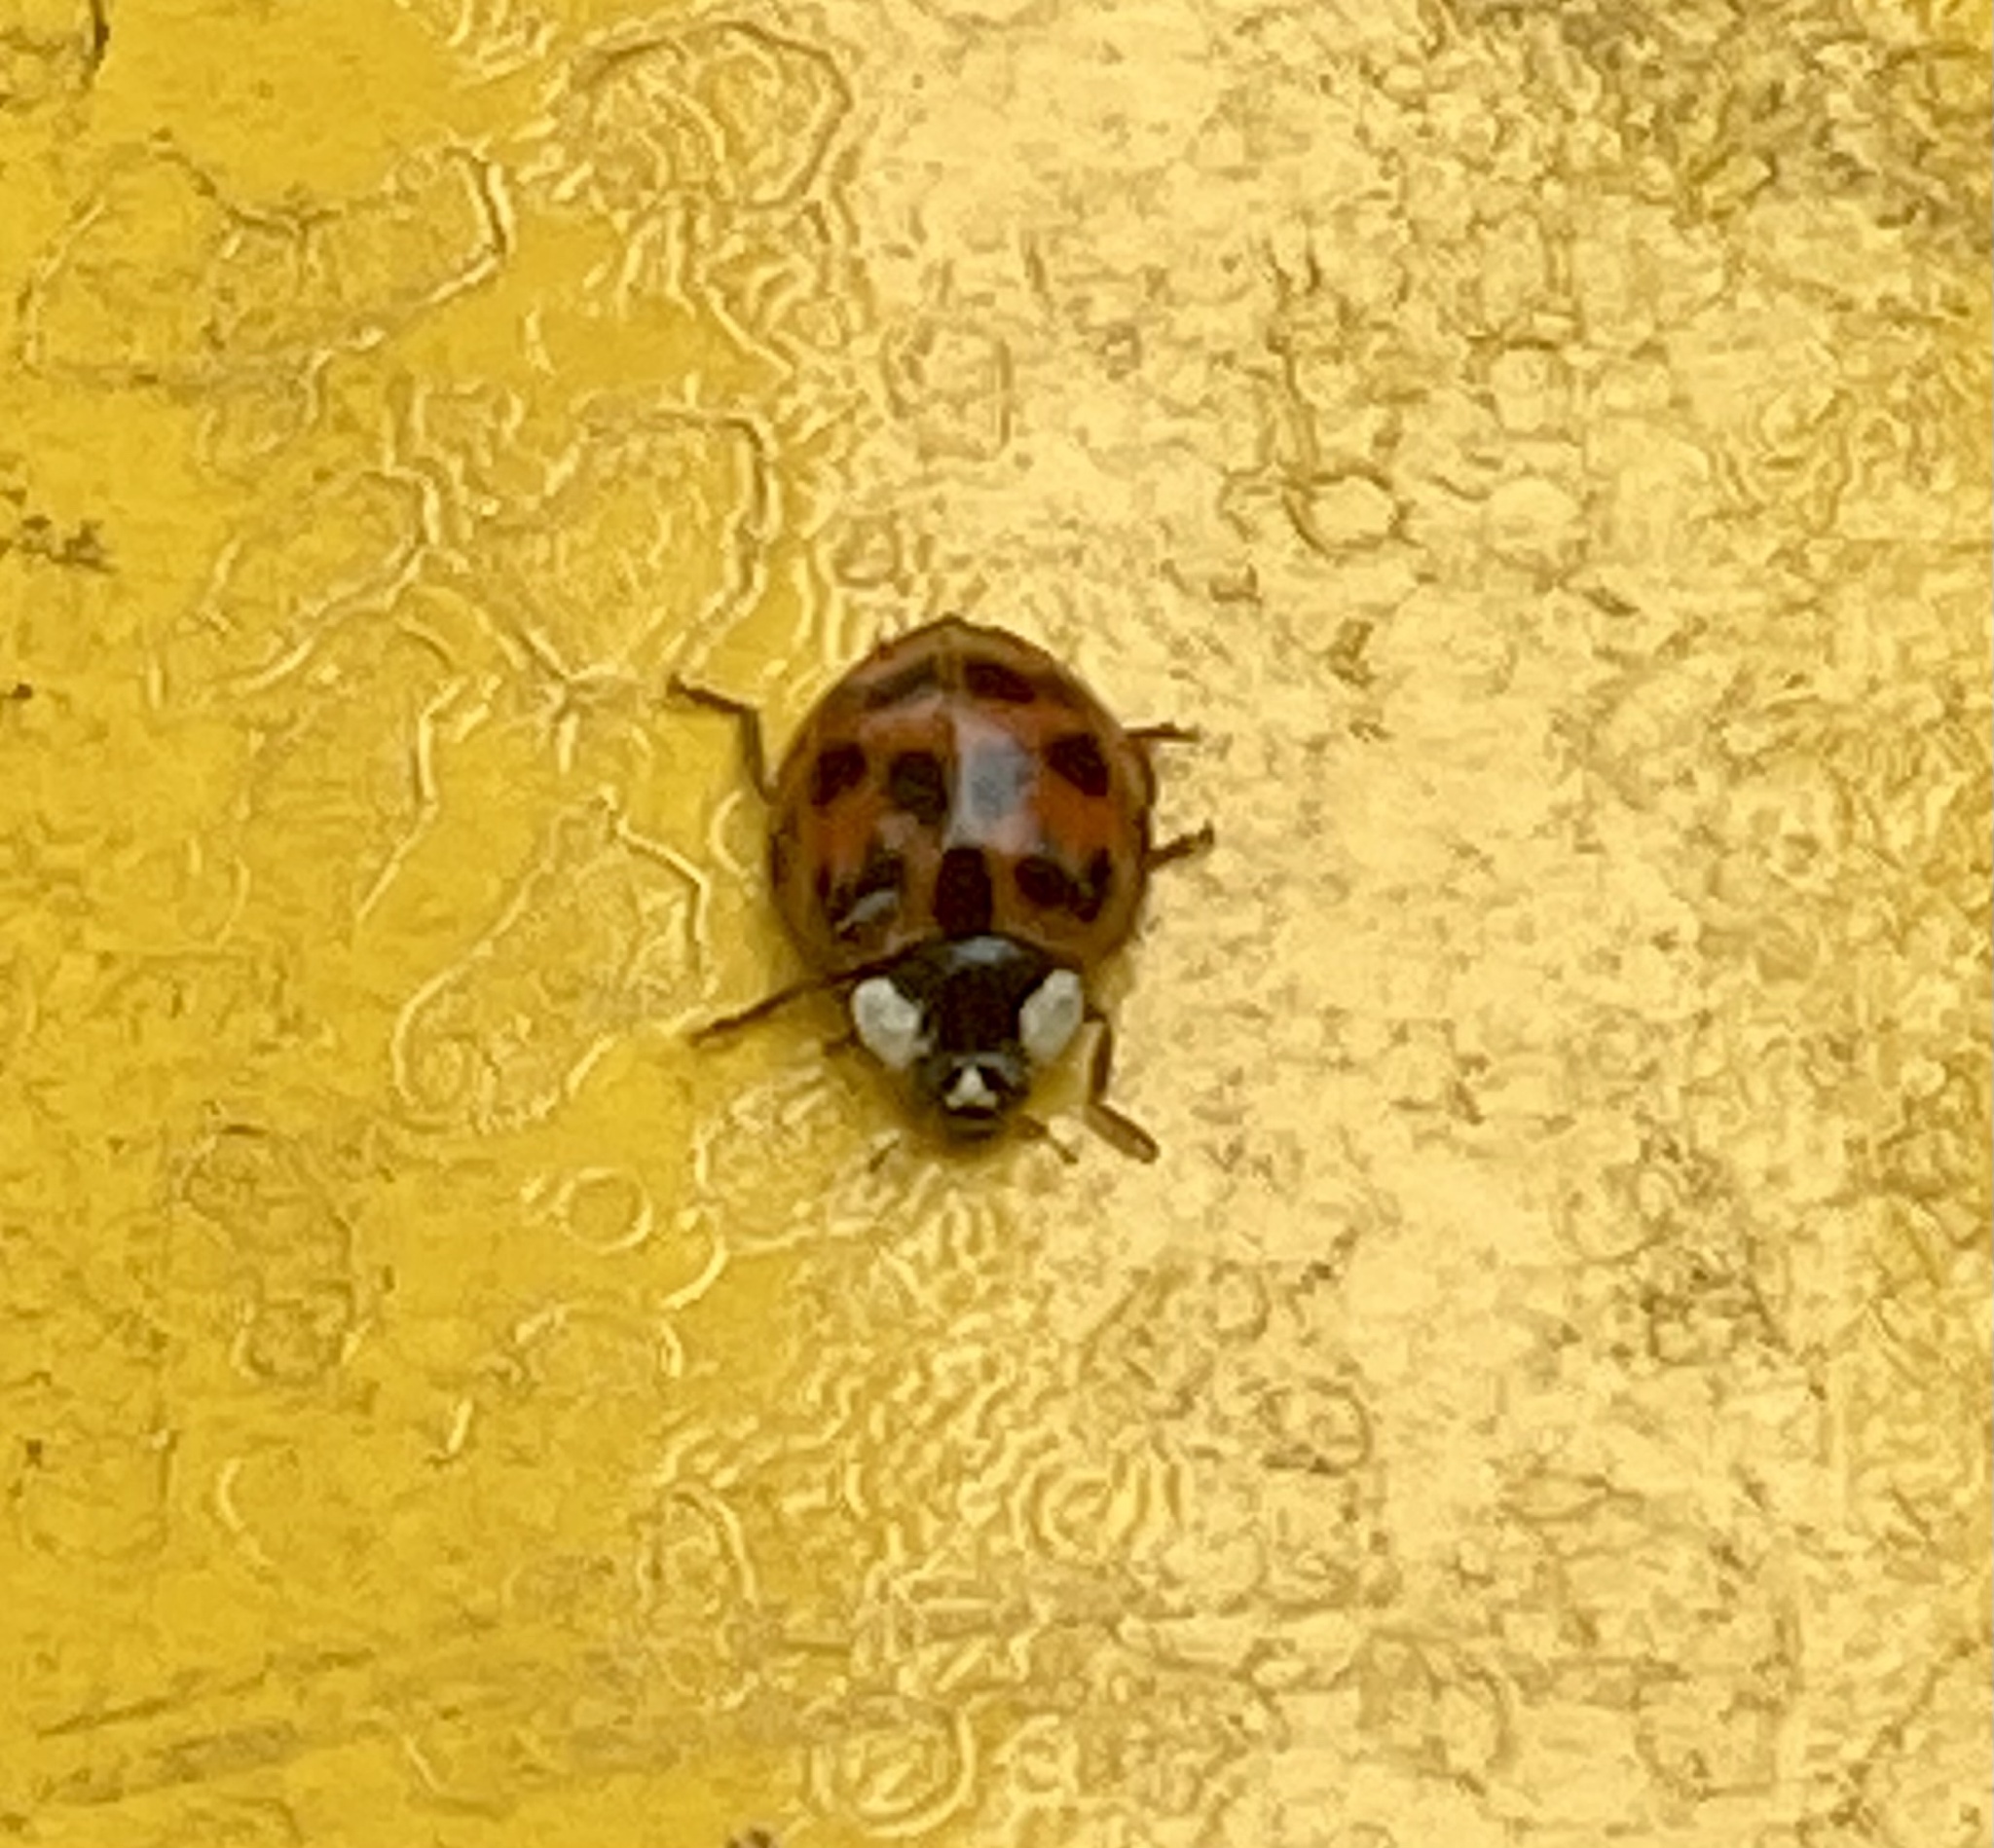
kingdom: Animalia
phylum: Arthropoda
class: Insecta
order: Coleoptera
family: Coccinellidae
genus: Harmonia
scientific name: Harmonia axyridis
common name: Harlequin ladybird
